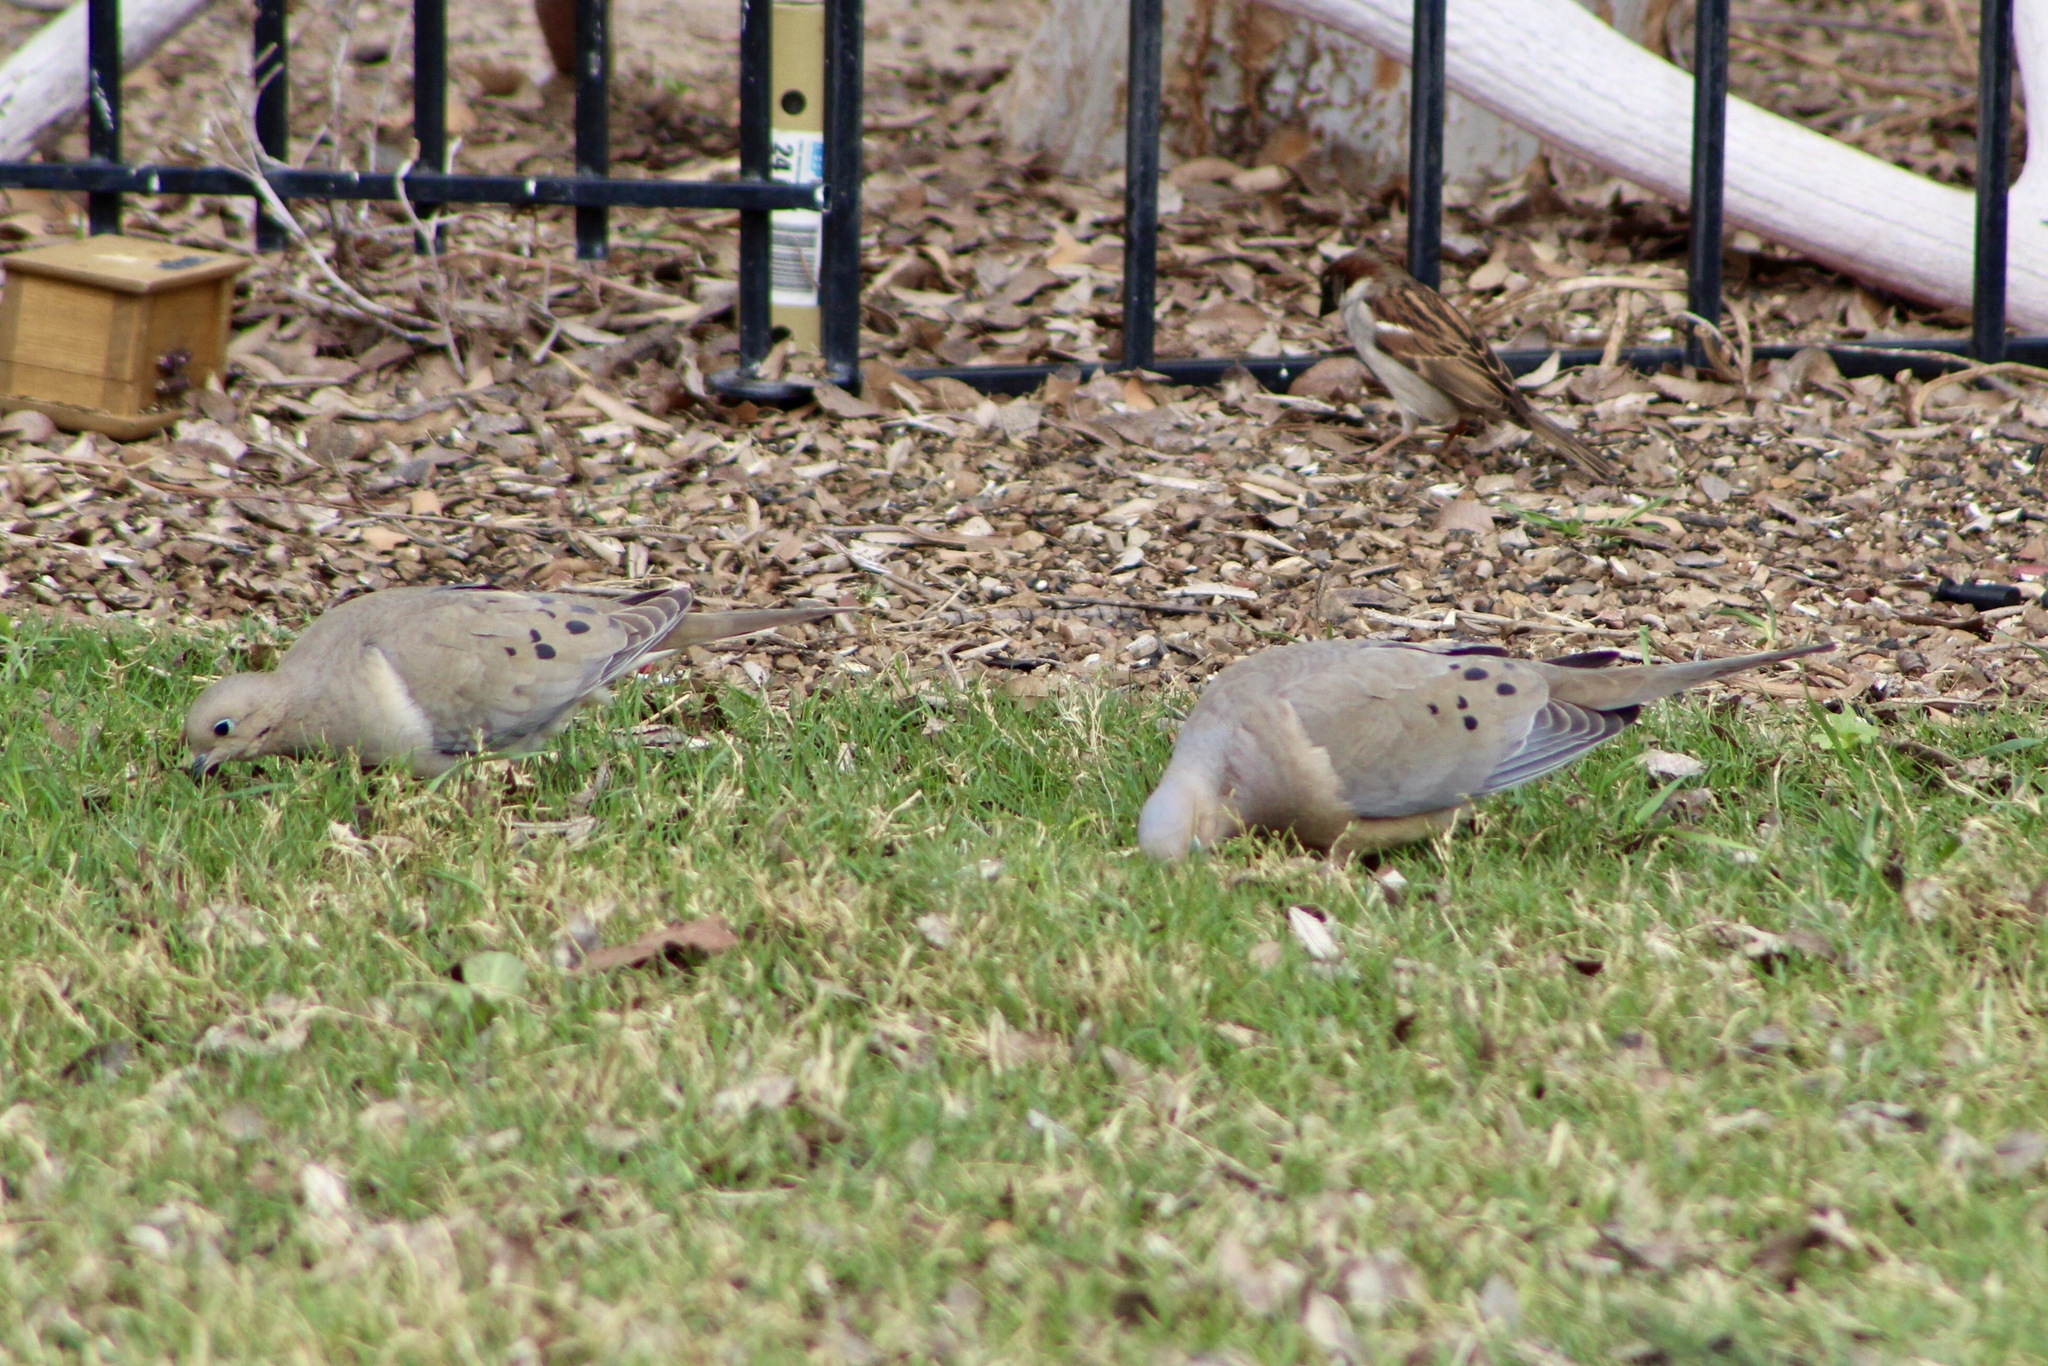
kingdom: Animalia
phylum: Chordata
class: Aves
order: Columbiformes
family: Columbidae
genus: Zenaida
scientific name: Zenaida macroura
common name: Mourning dove
